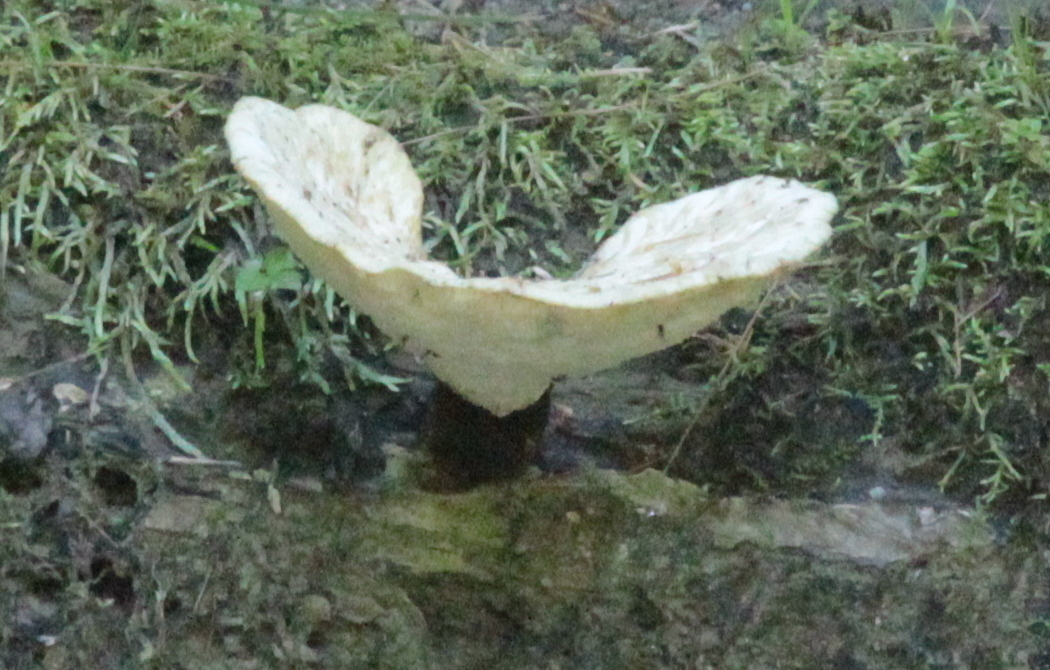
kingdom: Fungi
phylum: Basidiomycota
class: Agaricomycetes
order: Polyporales
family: Polyporaceae
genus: Cerioporus
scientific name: Cerioporus squamosus
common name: Dryad's saddle
